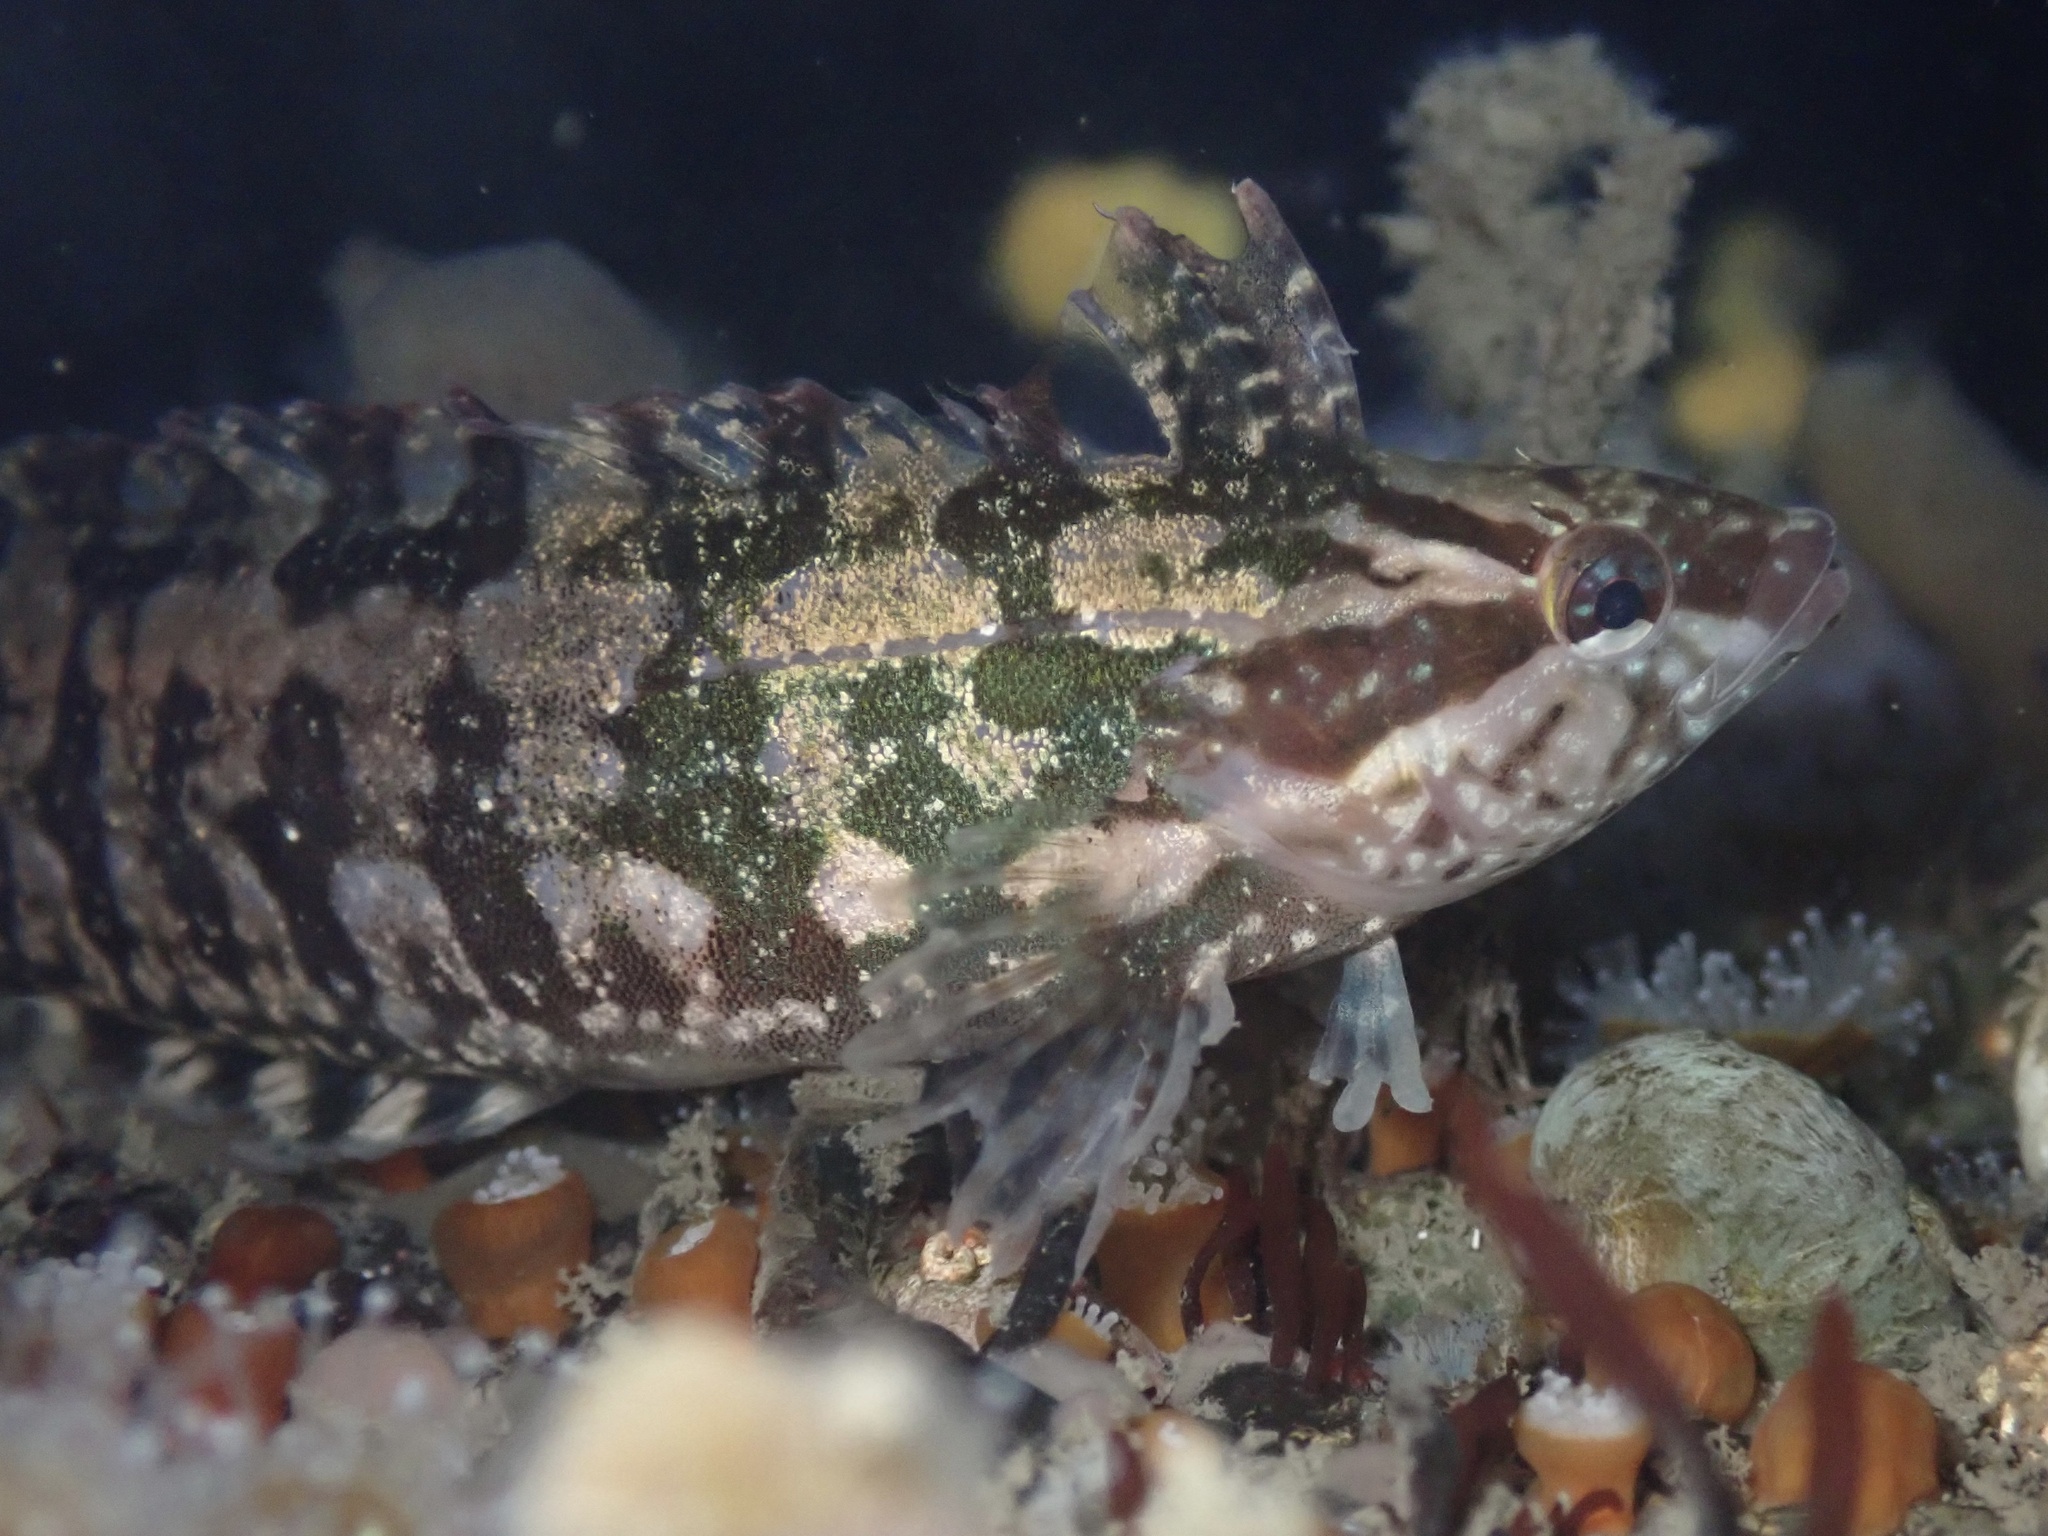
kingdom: Animalia
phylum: Chordata
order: Perciformes
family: Clinidae
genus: Gibbonsia
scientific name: Gibbonsia metzi
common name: Striped kelpfish
